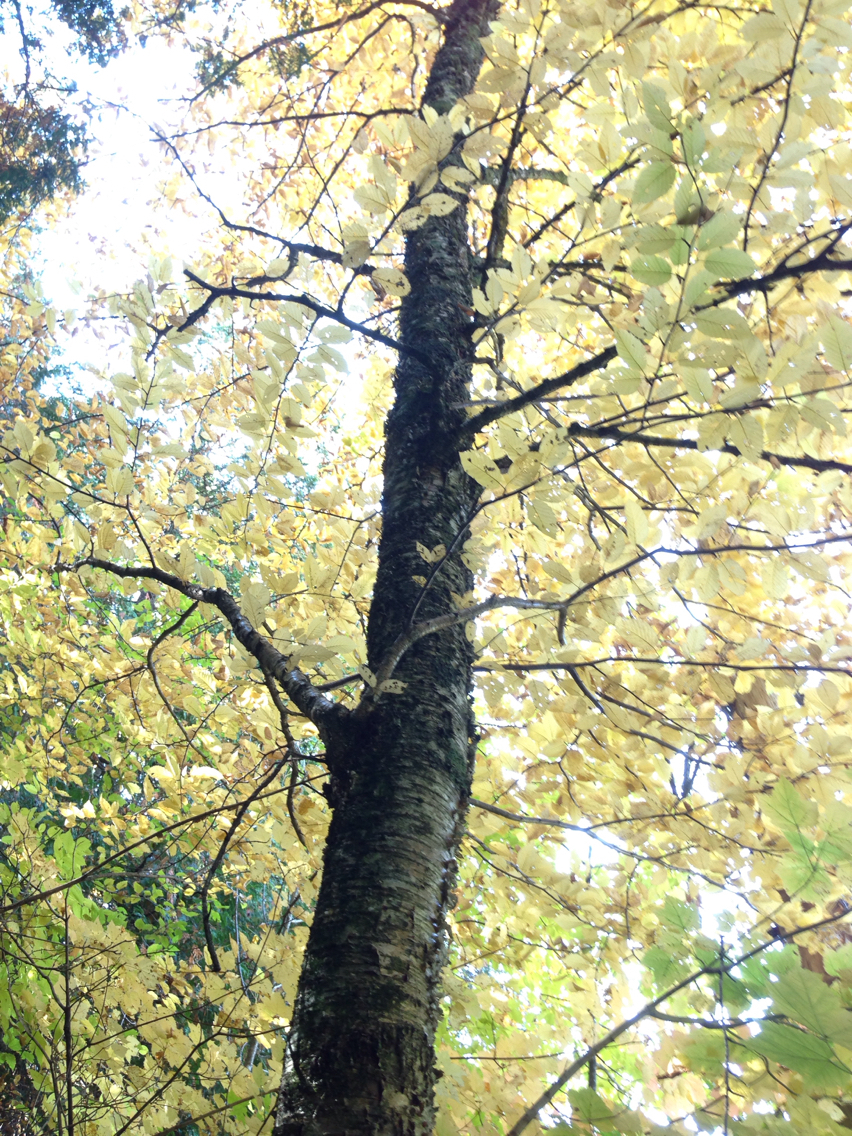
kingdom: Plantae
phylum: Tracheophyta
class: Magnoliopsida
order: Fagales
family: Betulaceae
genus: Betula
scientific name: Betula alleghaniensis
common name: Yellow birch
